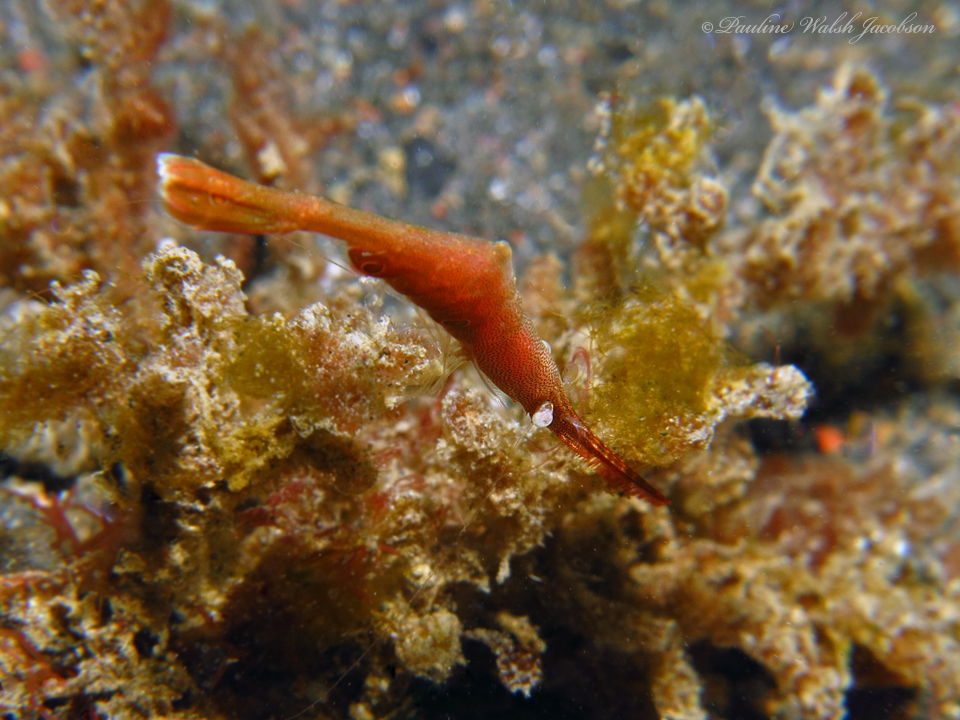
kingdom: Animalia
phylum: Arthropoda
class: Malacostraca
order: Decapoda
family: Hippolytidae
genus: Tozeuma
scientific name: Tozeuma lanceolatum
